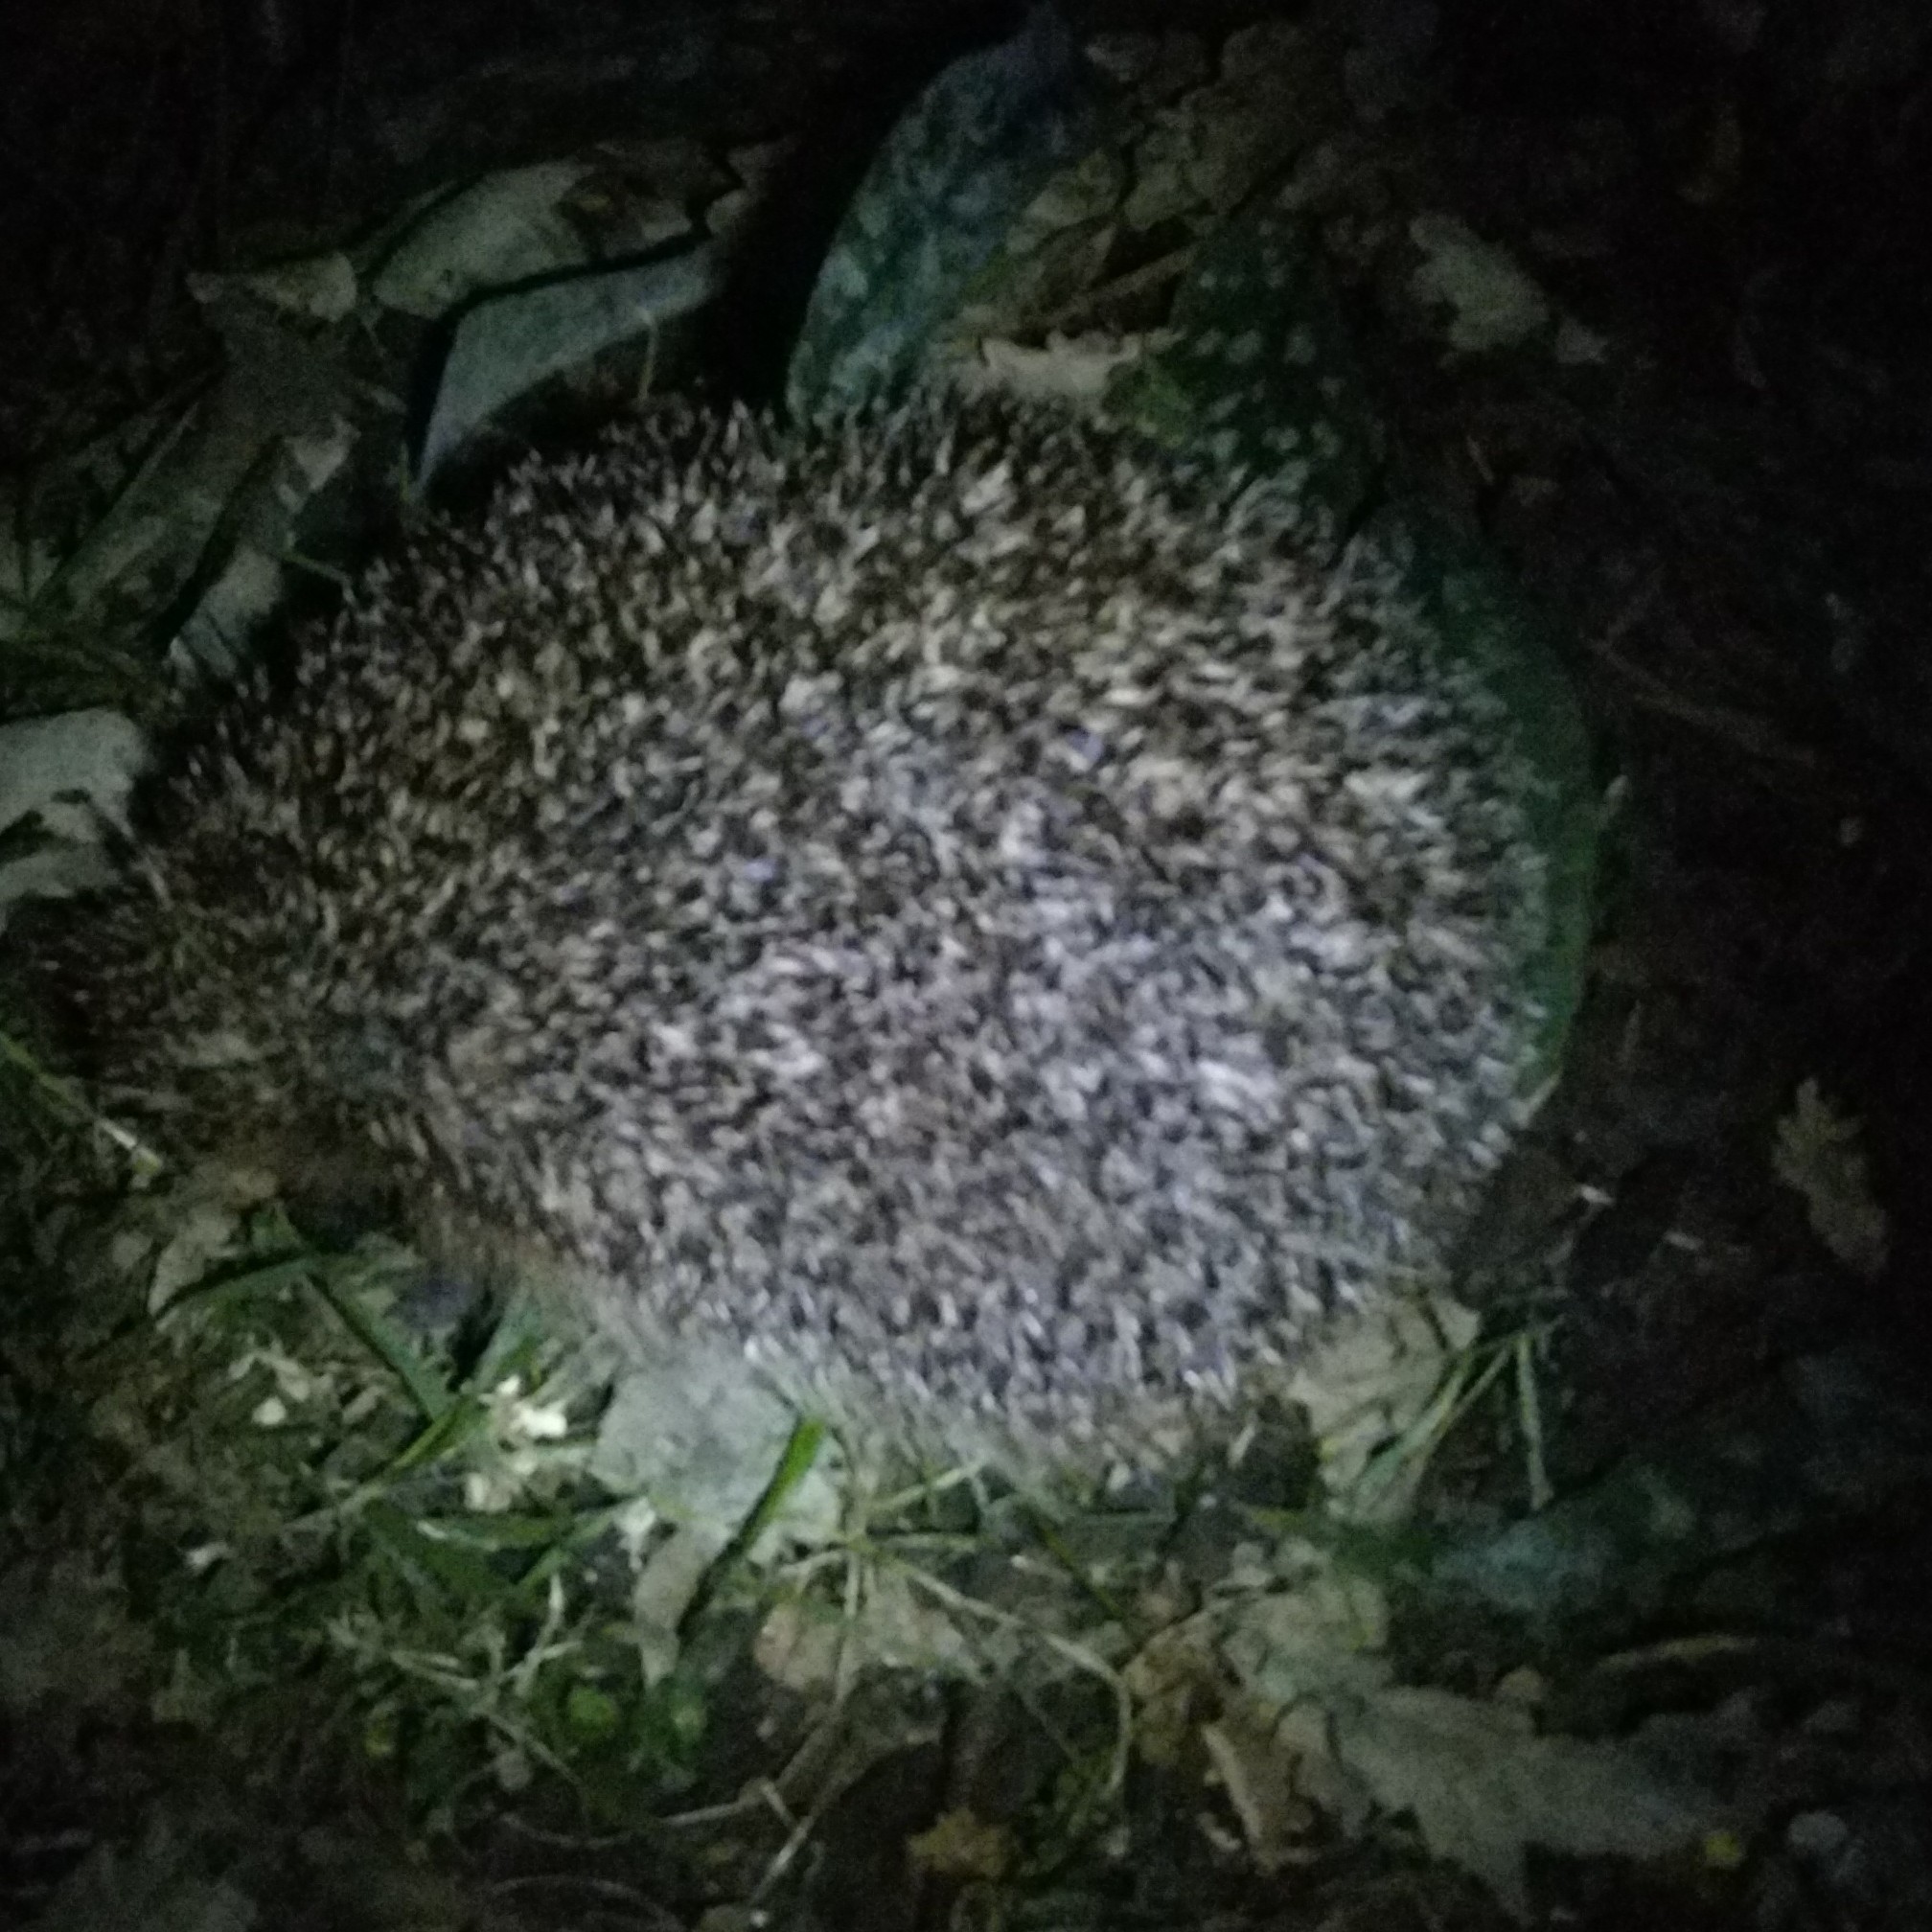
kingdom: Animalia
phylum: Chordata
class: Mammalia
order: Erinaceomorpha
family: Erinaceidae
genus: Erinaceus
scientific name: Erinaceus europaeus
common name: West european hedgehog
